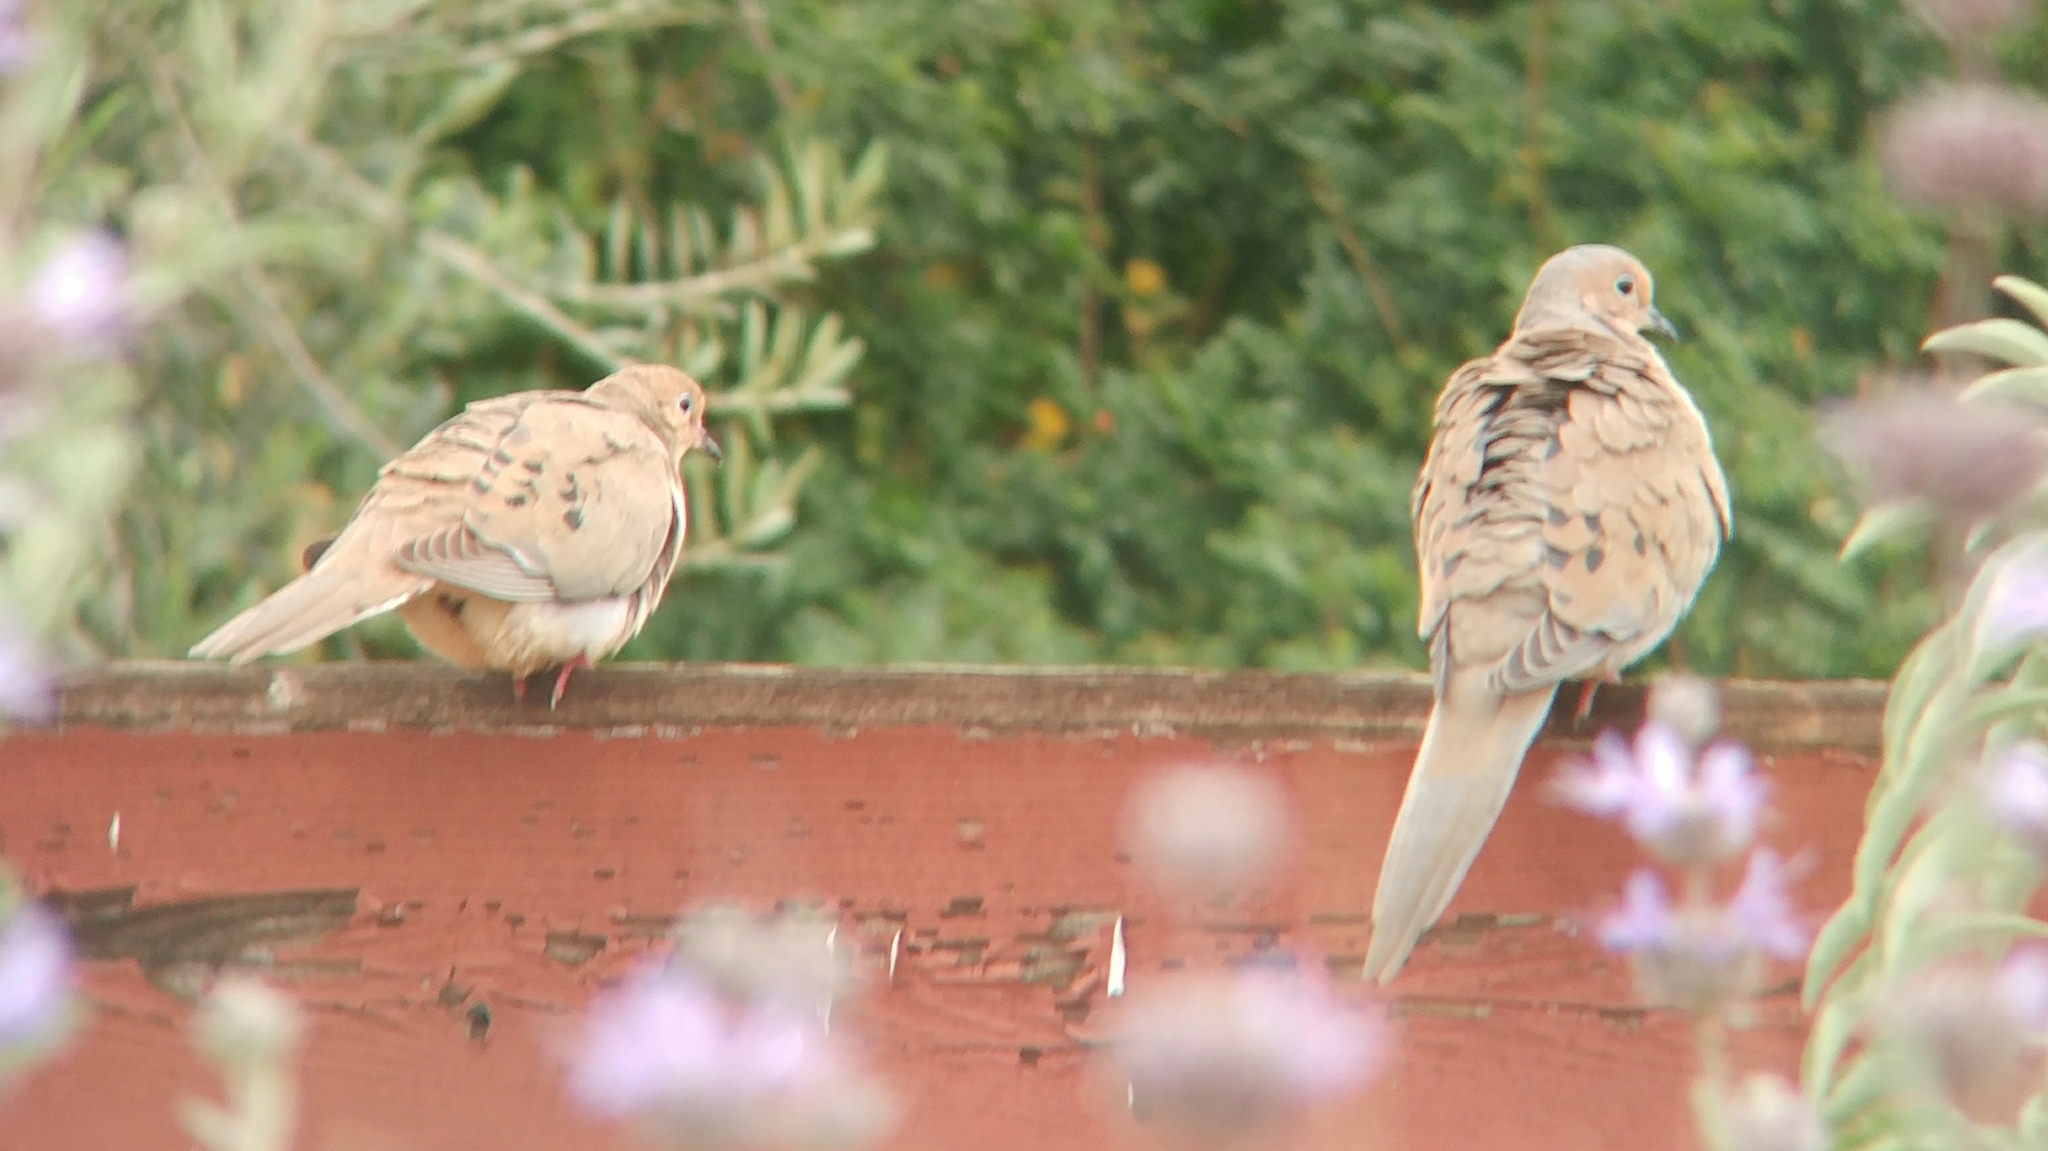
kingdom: Animalia
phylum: Chordata
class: Aves
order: Columbiformes
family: Columbidae
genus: Zenaida
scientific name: Zenaida macroura
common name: Mourning dove
